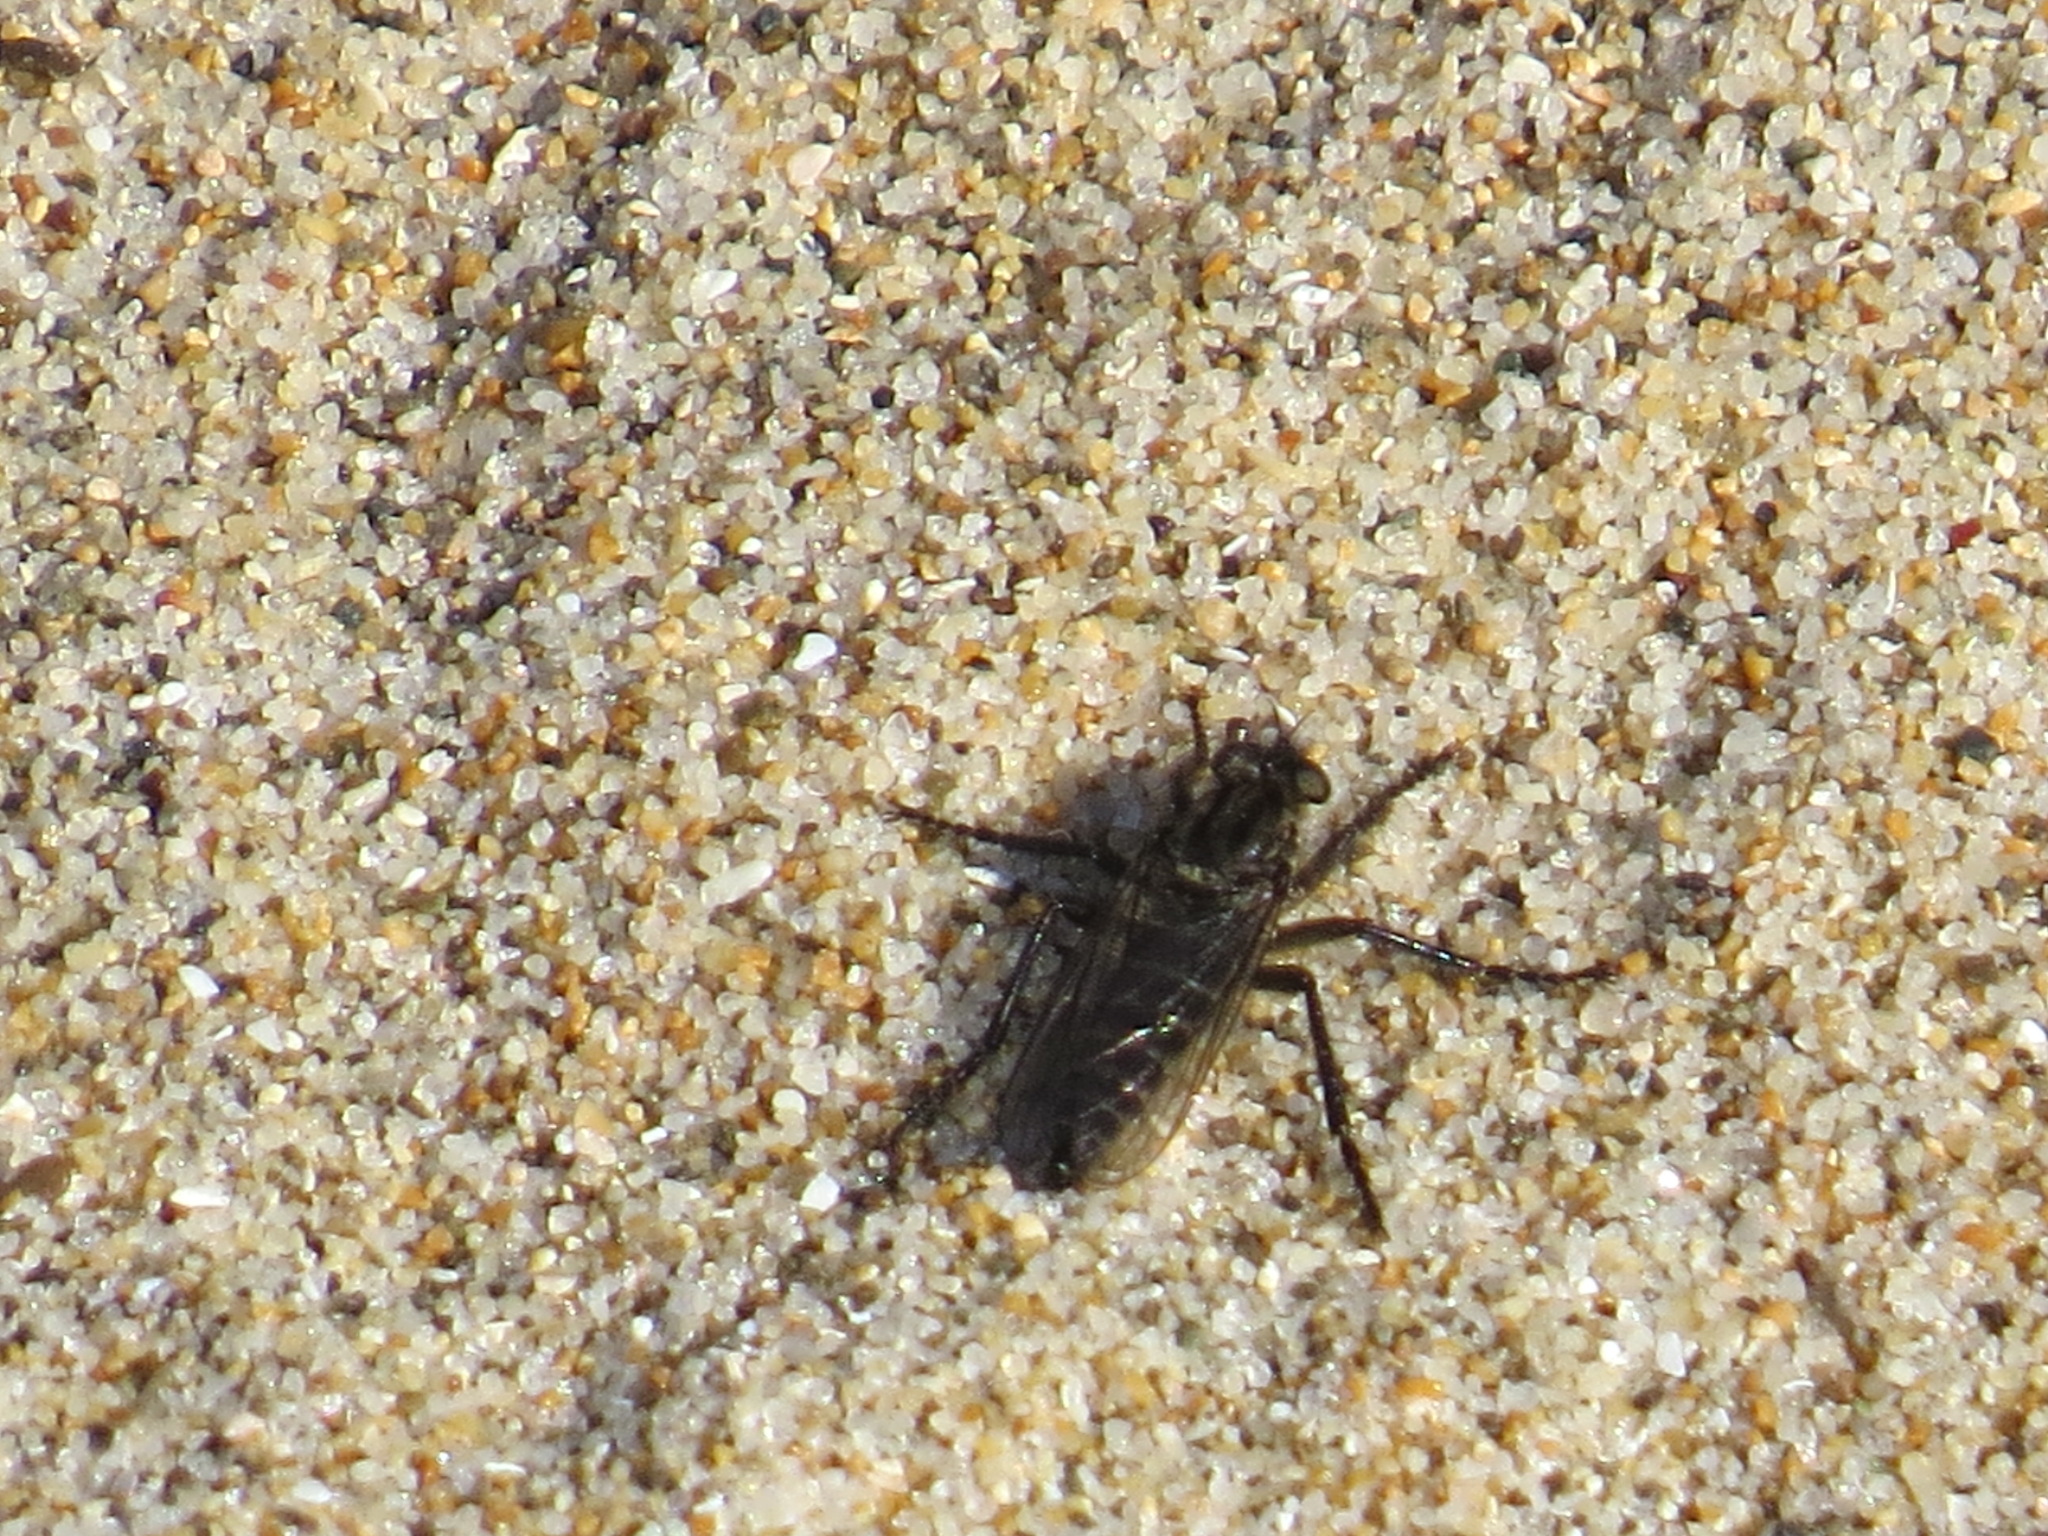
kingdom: Animalia
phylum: Arthropoda
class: Insecta
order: Diptera
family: Asilidae
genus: Lasiopogon
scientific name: Lasiopogon bivittatus
